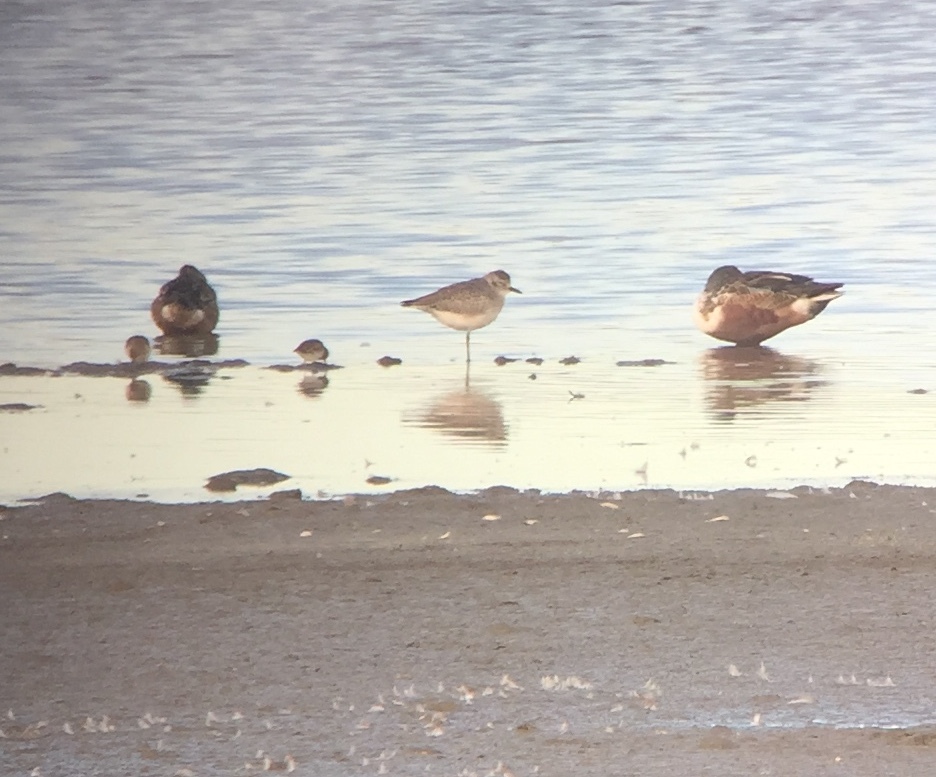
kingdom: Animalia
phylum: Chordata
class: Aves
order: Charadriiformes
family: Charadriidae
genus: Pluvialis
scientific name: Pluvialis squatarola
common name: Grey plover
